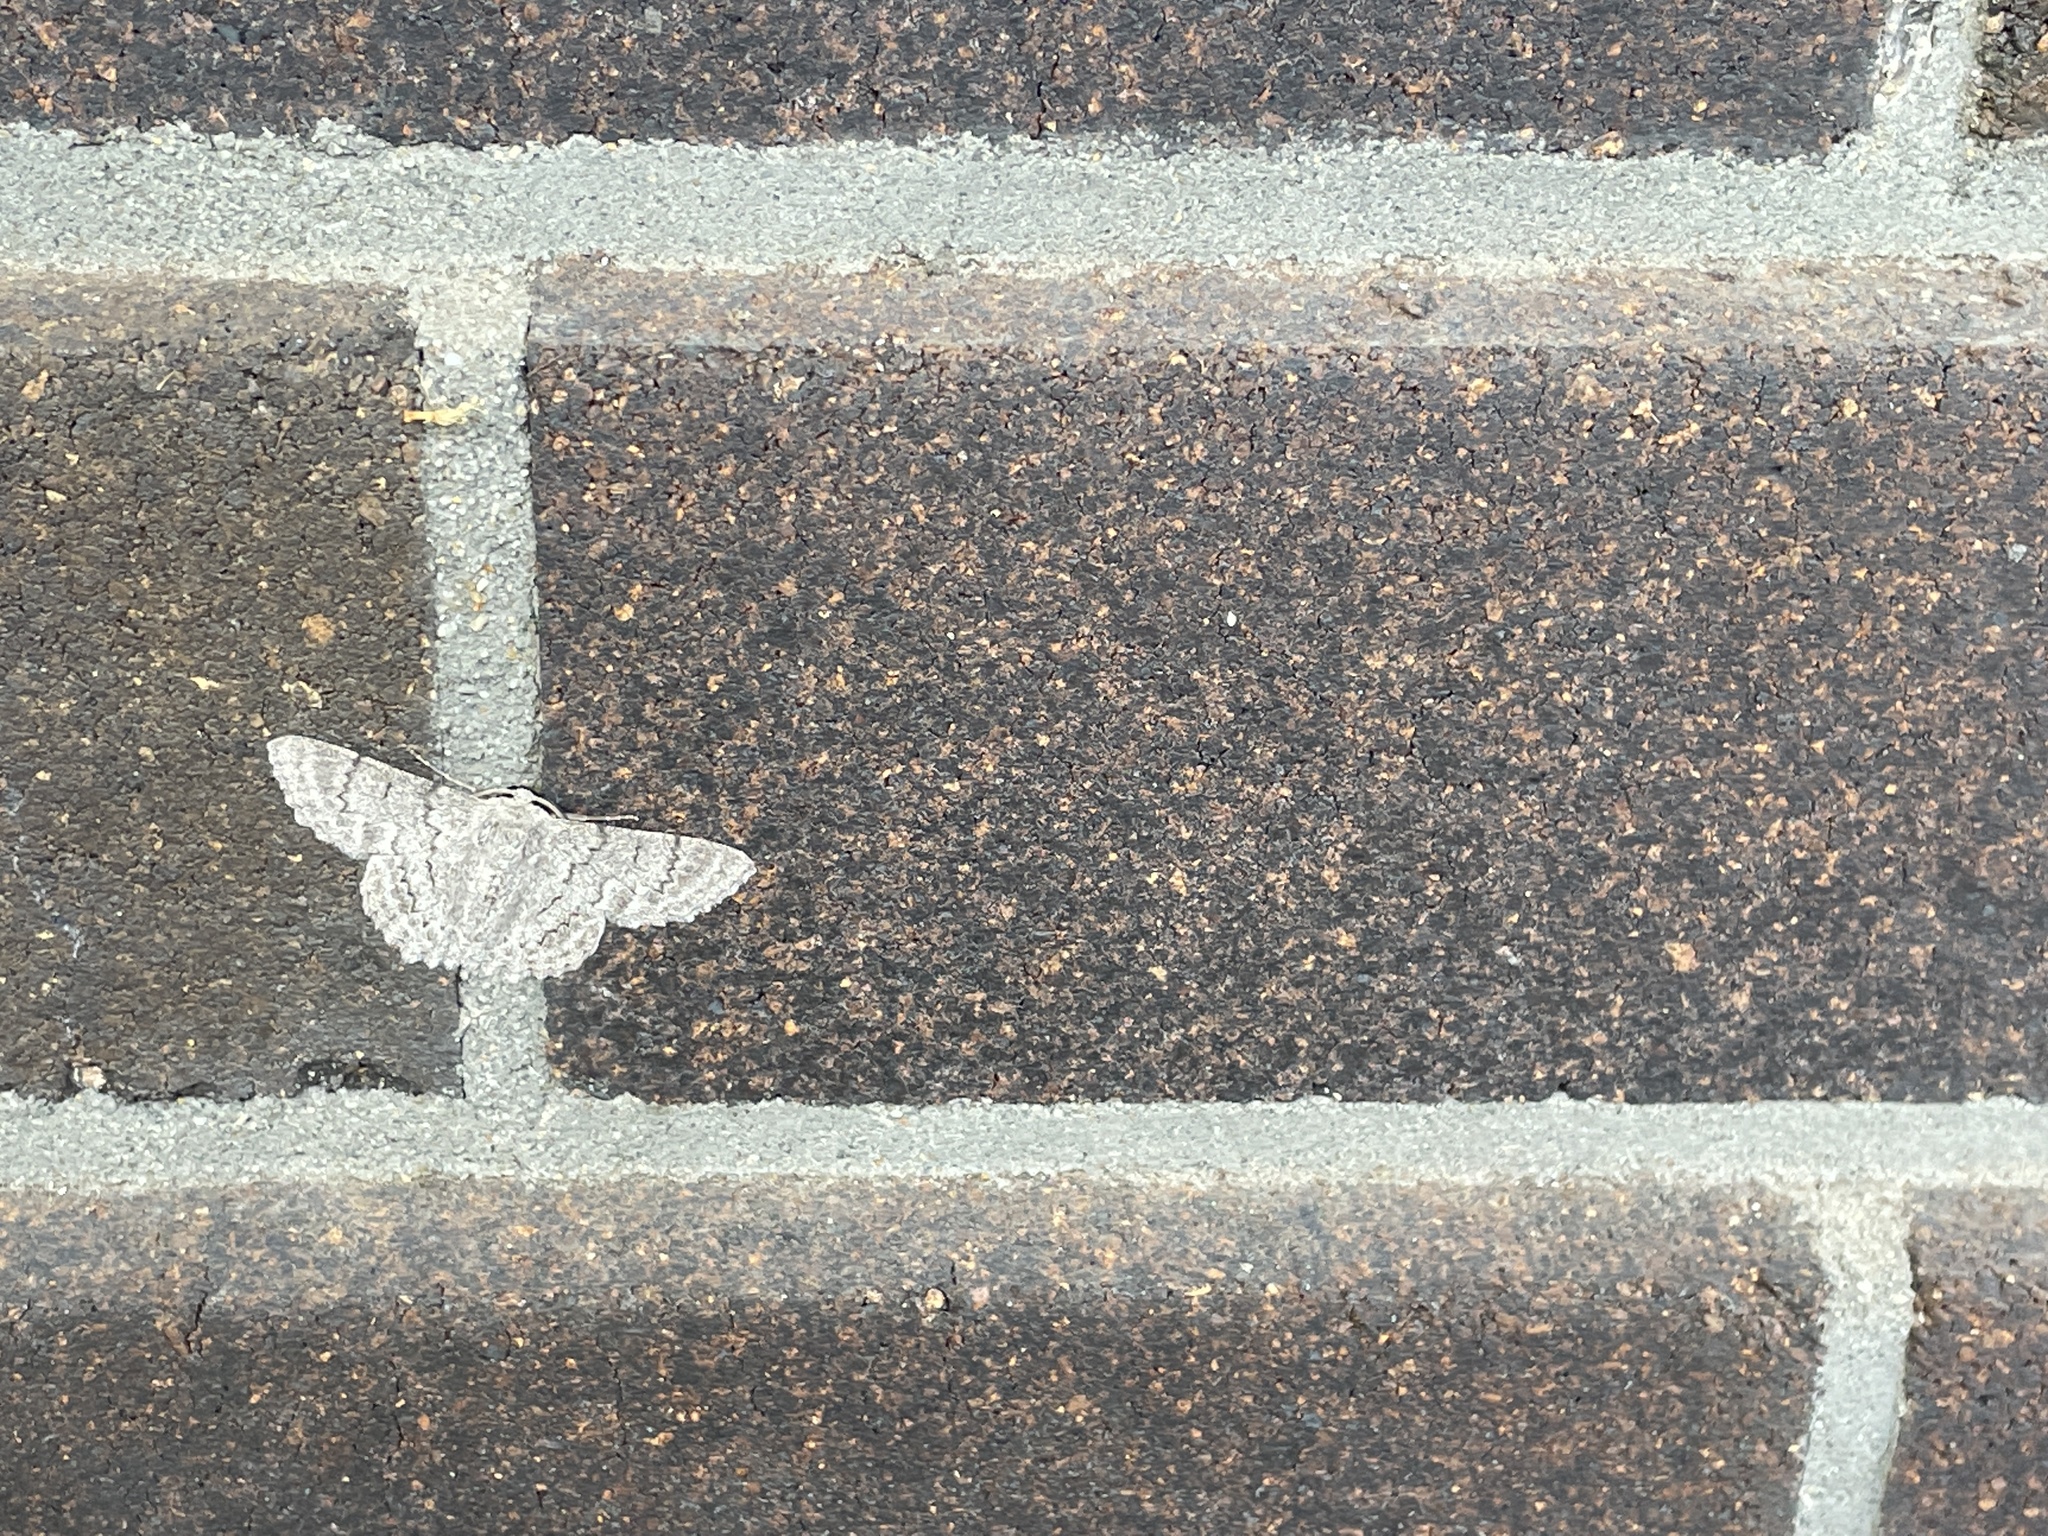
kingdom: Animalia
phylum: Arthropoda
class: Insecta
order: Lepidoptera
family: Geometridae
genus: Crypsiphona
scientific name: Crypsiphona ocultaria
